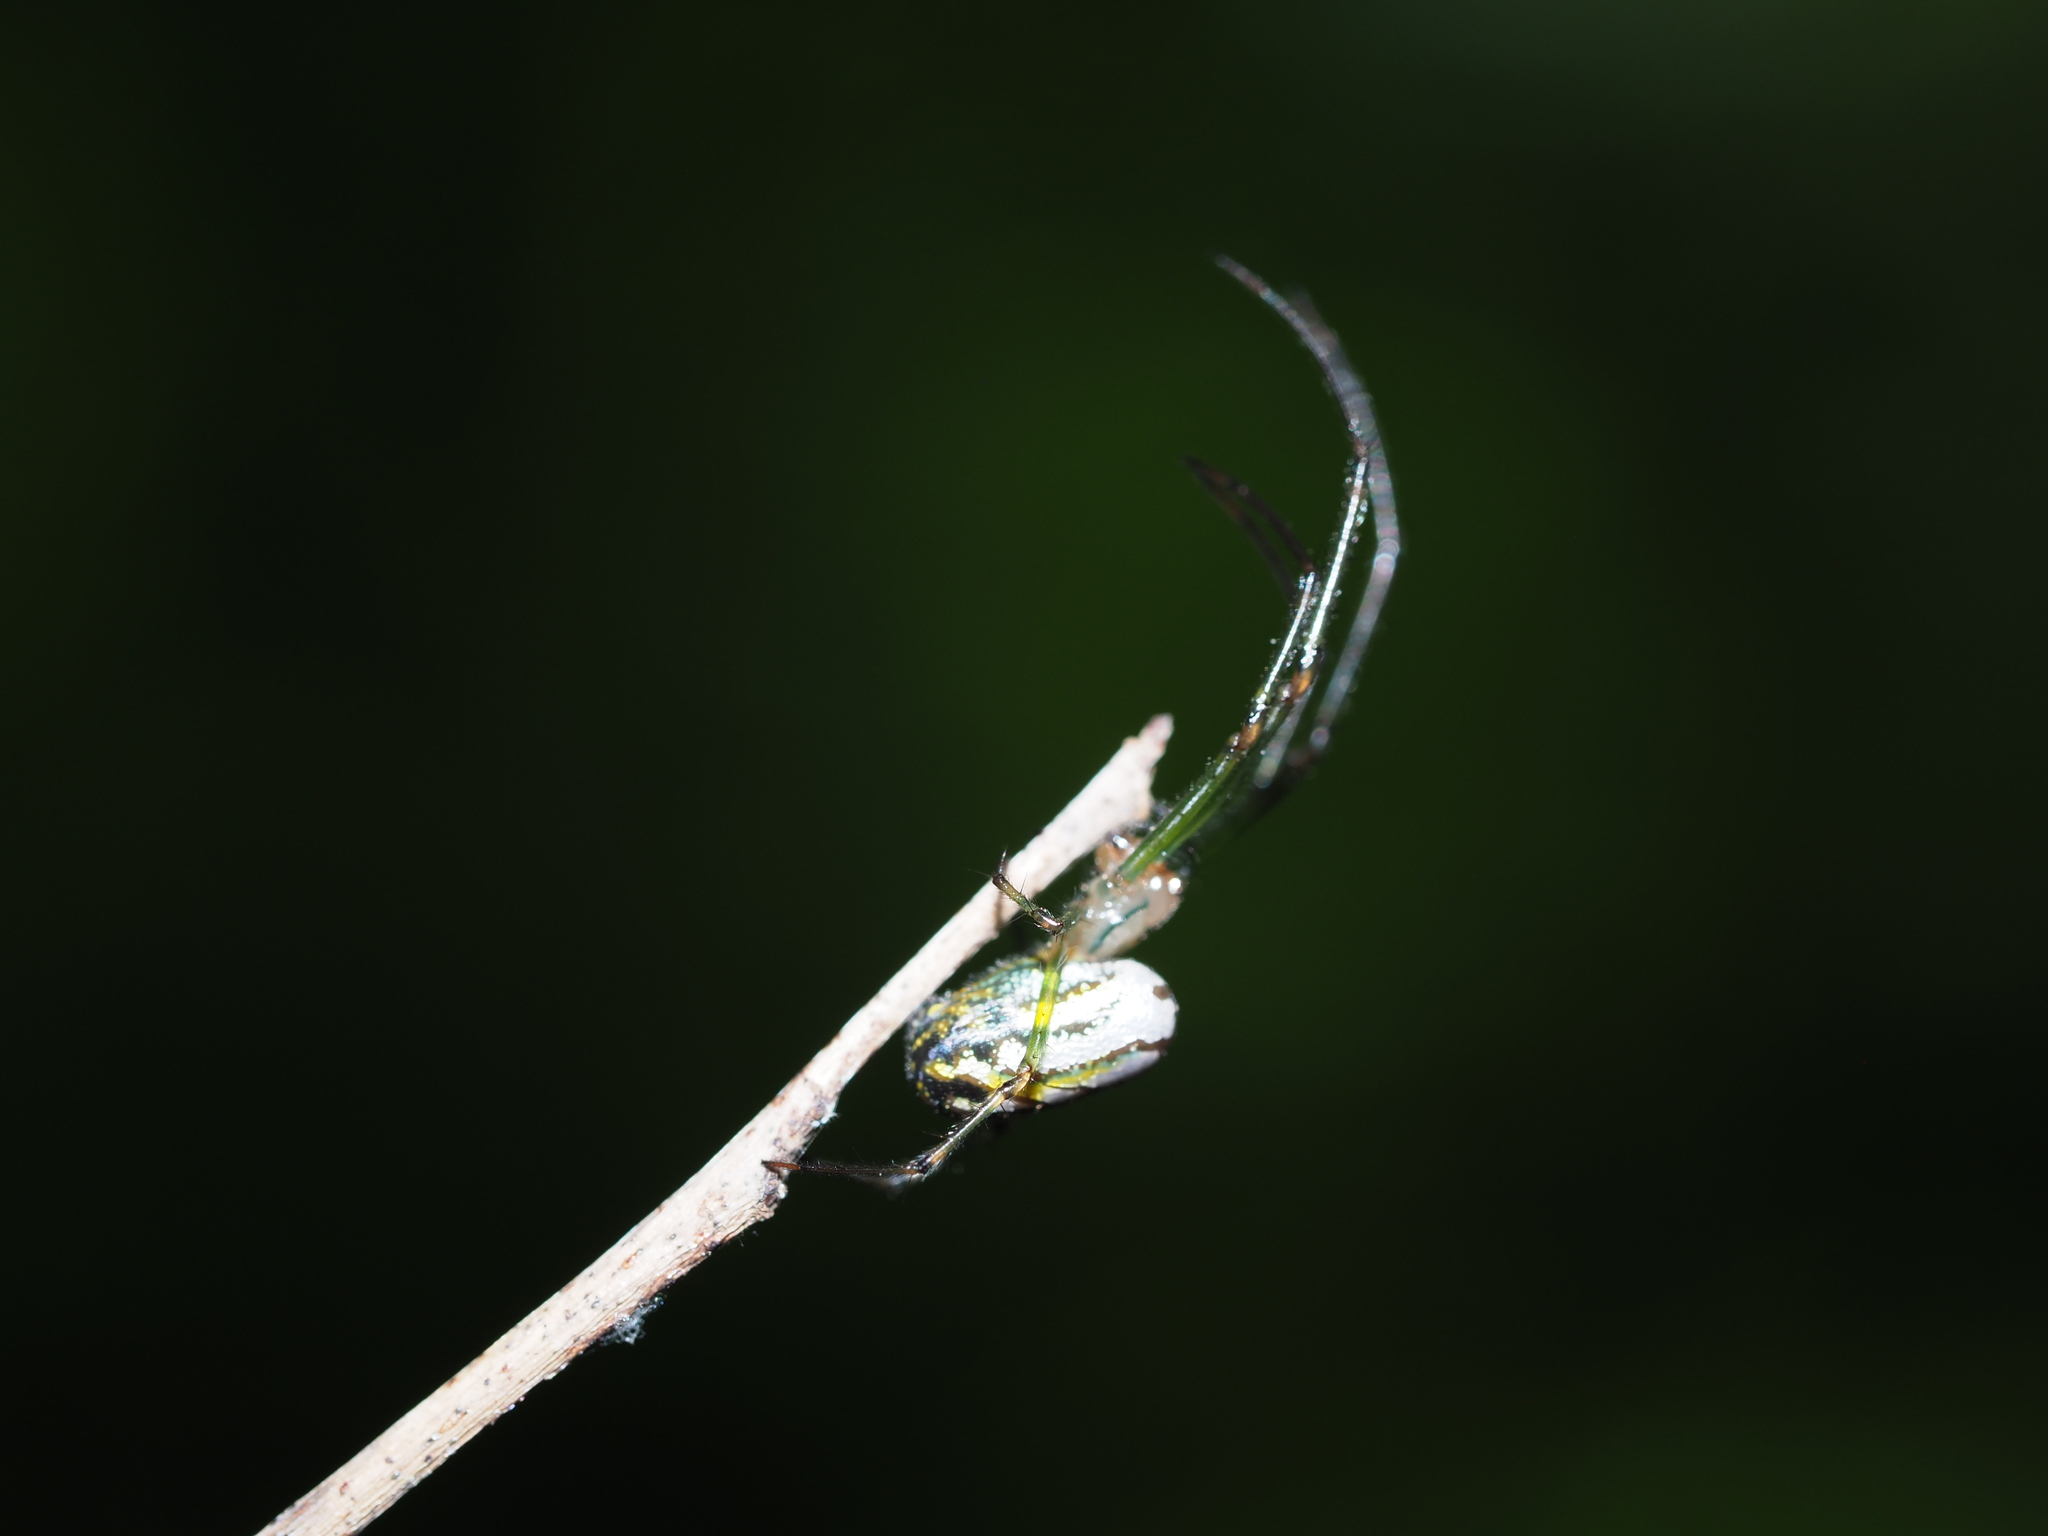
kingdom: Animalia
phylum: Arthropoda
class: Arachnida
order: Araneae
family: Tetragnathidae
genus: Leucauge
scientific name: Leucauge venusta
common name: Longjawed orb weavers
